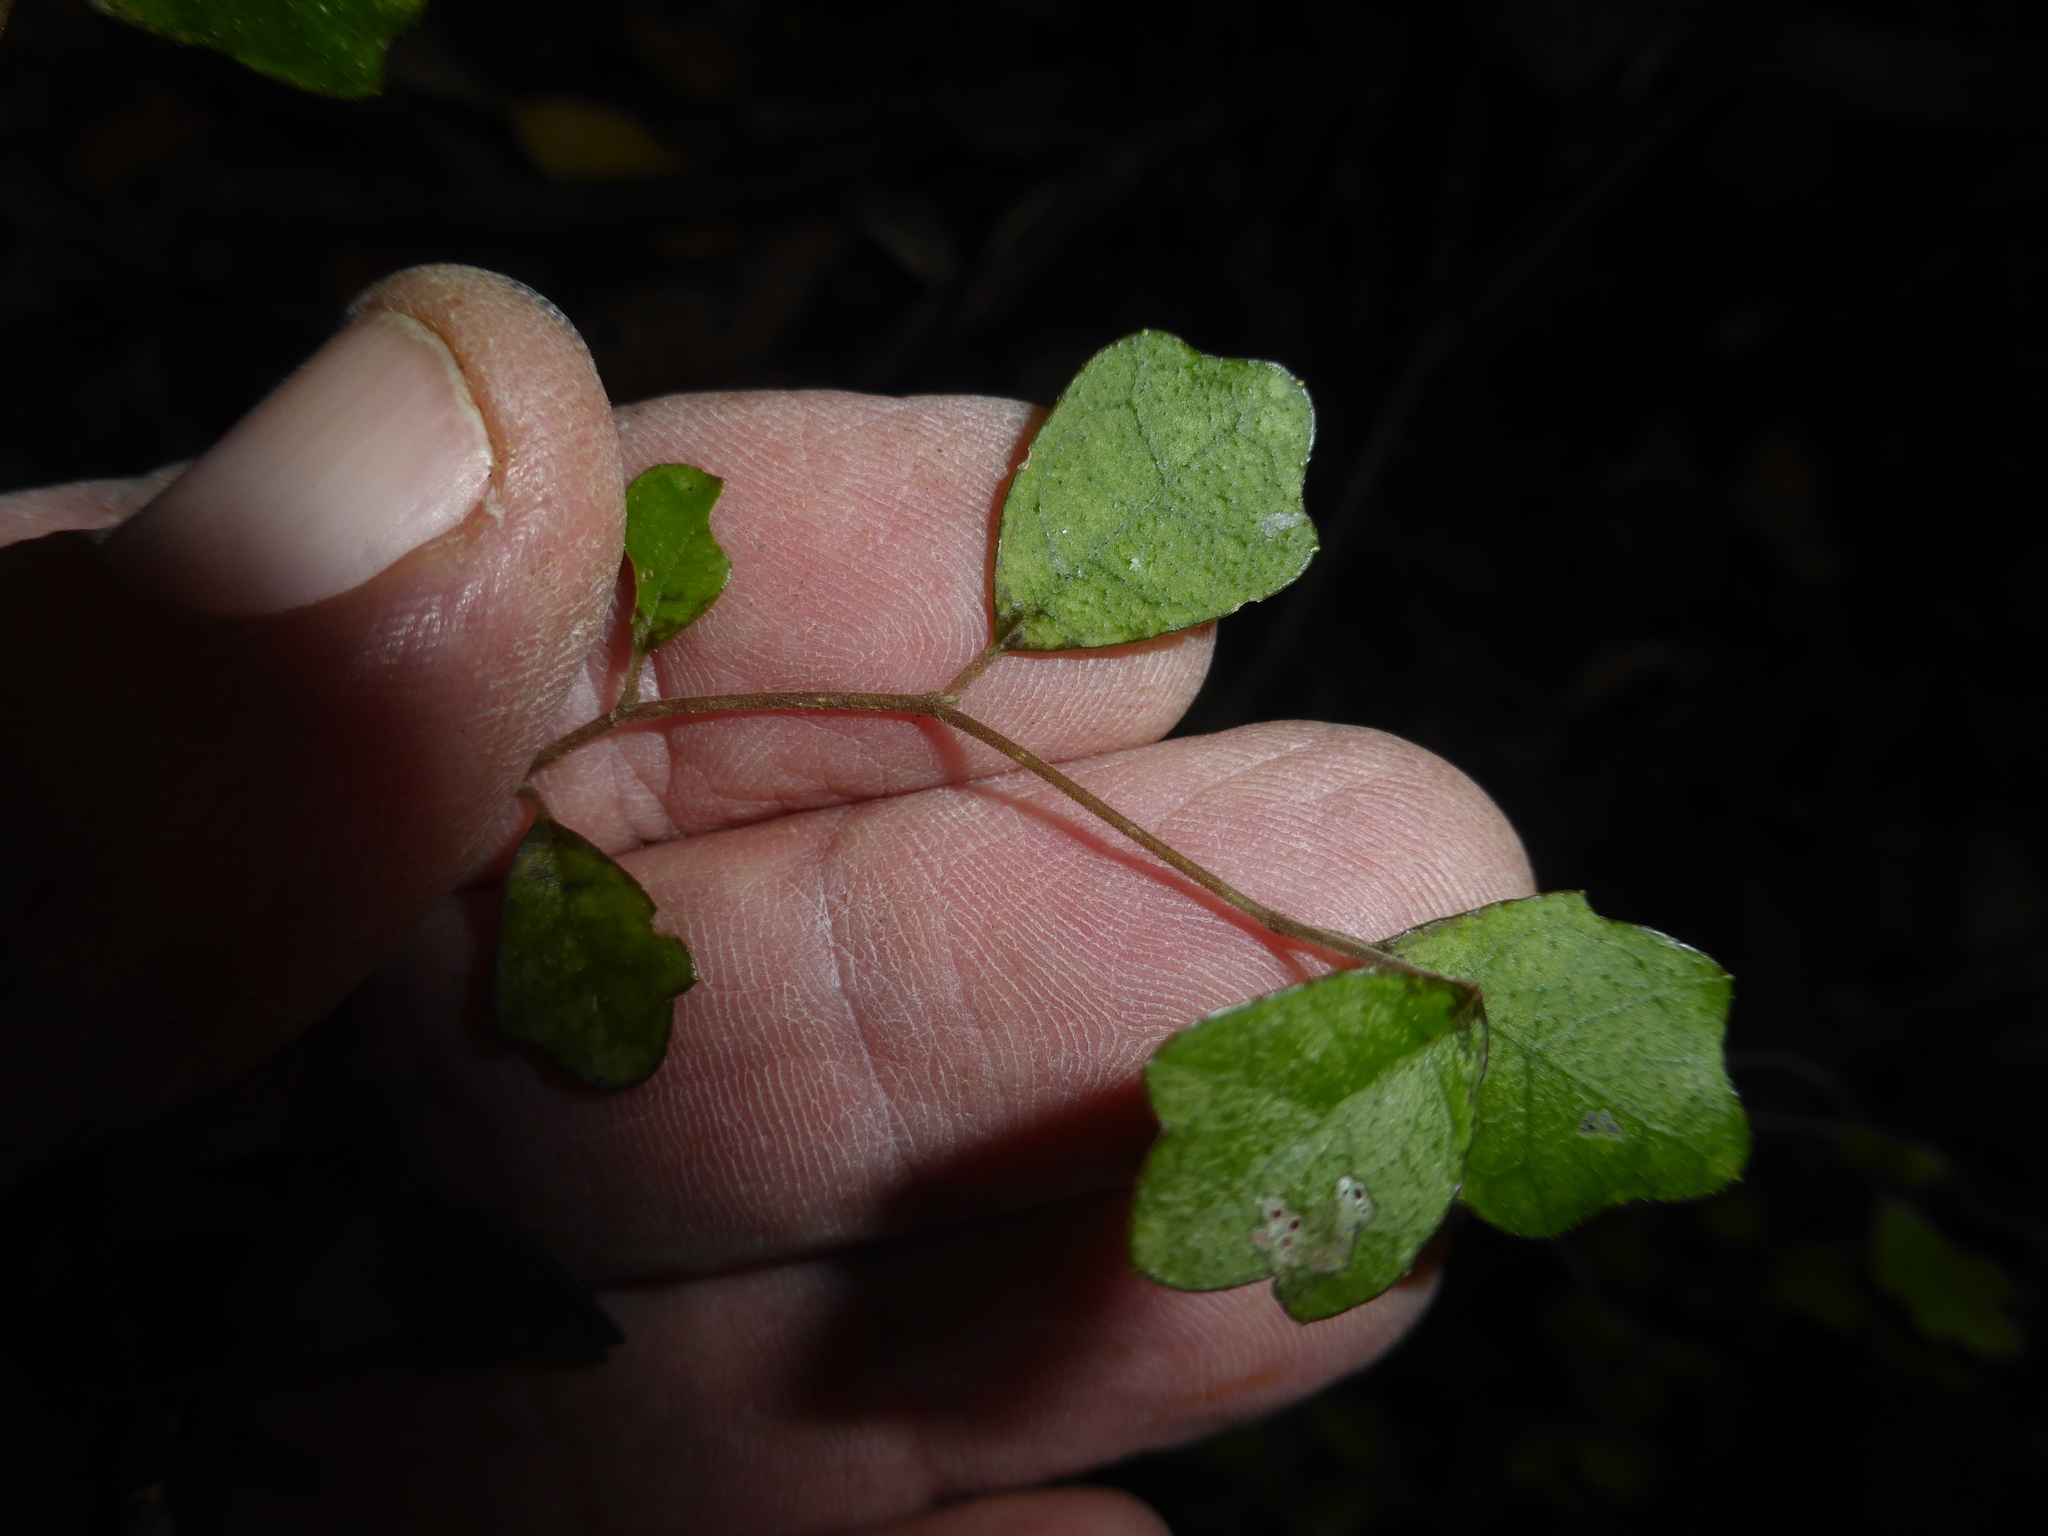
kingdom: Plantae
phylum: Tracheophyta
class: Magnoliopsida
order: Apiales
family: Pennantiaceae
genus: Pennantia
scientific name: Pennantia corymbosa
